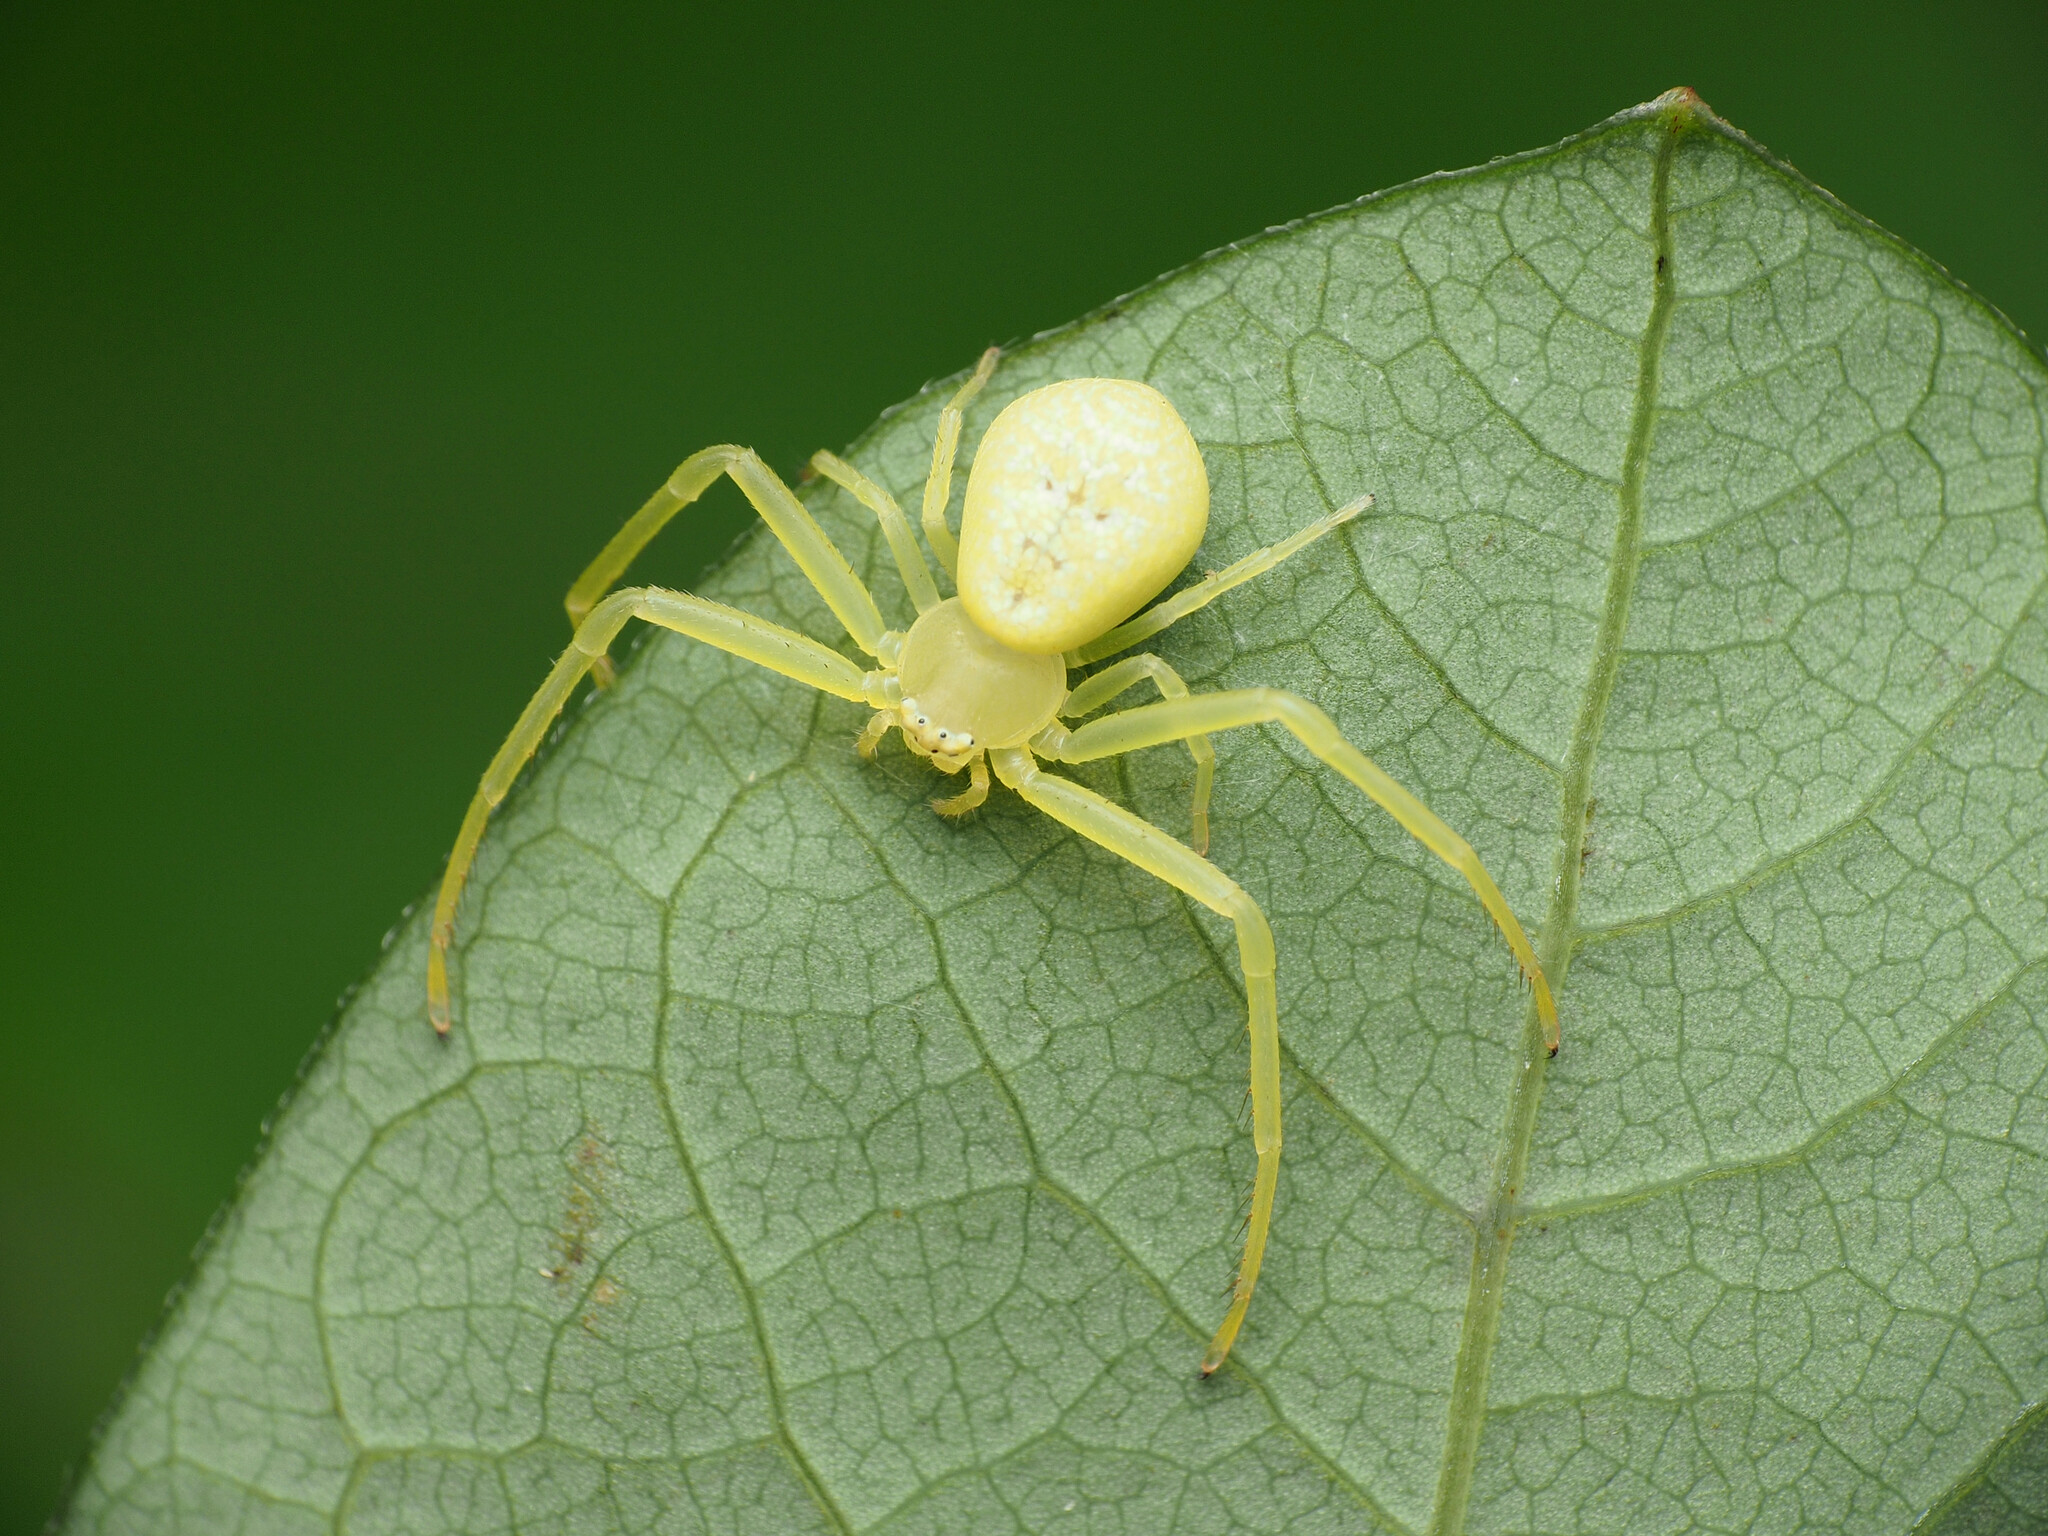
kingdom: Animalia
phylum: Arthropoda
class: Arachnida
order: Araneae
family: Thomisidae
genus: Misumessus
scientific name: Misumessus oblongus
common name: American green crab spider
